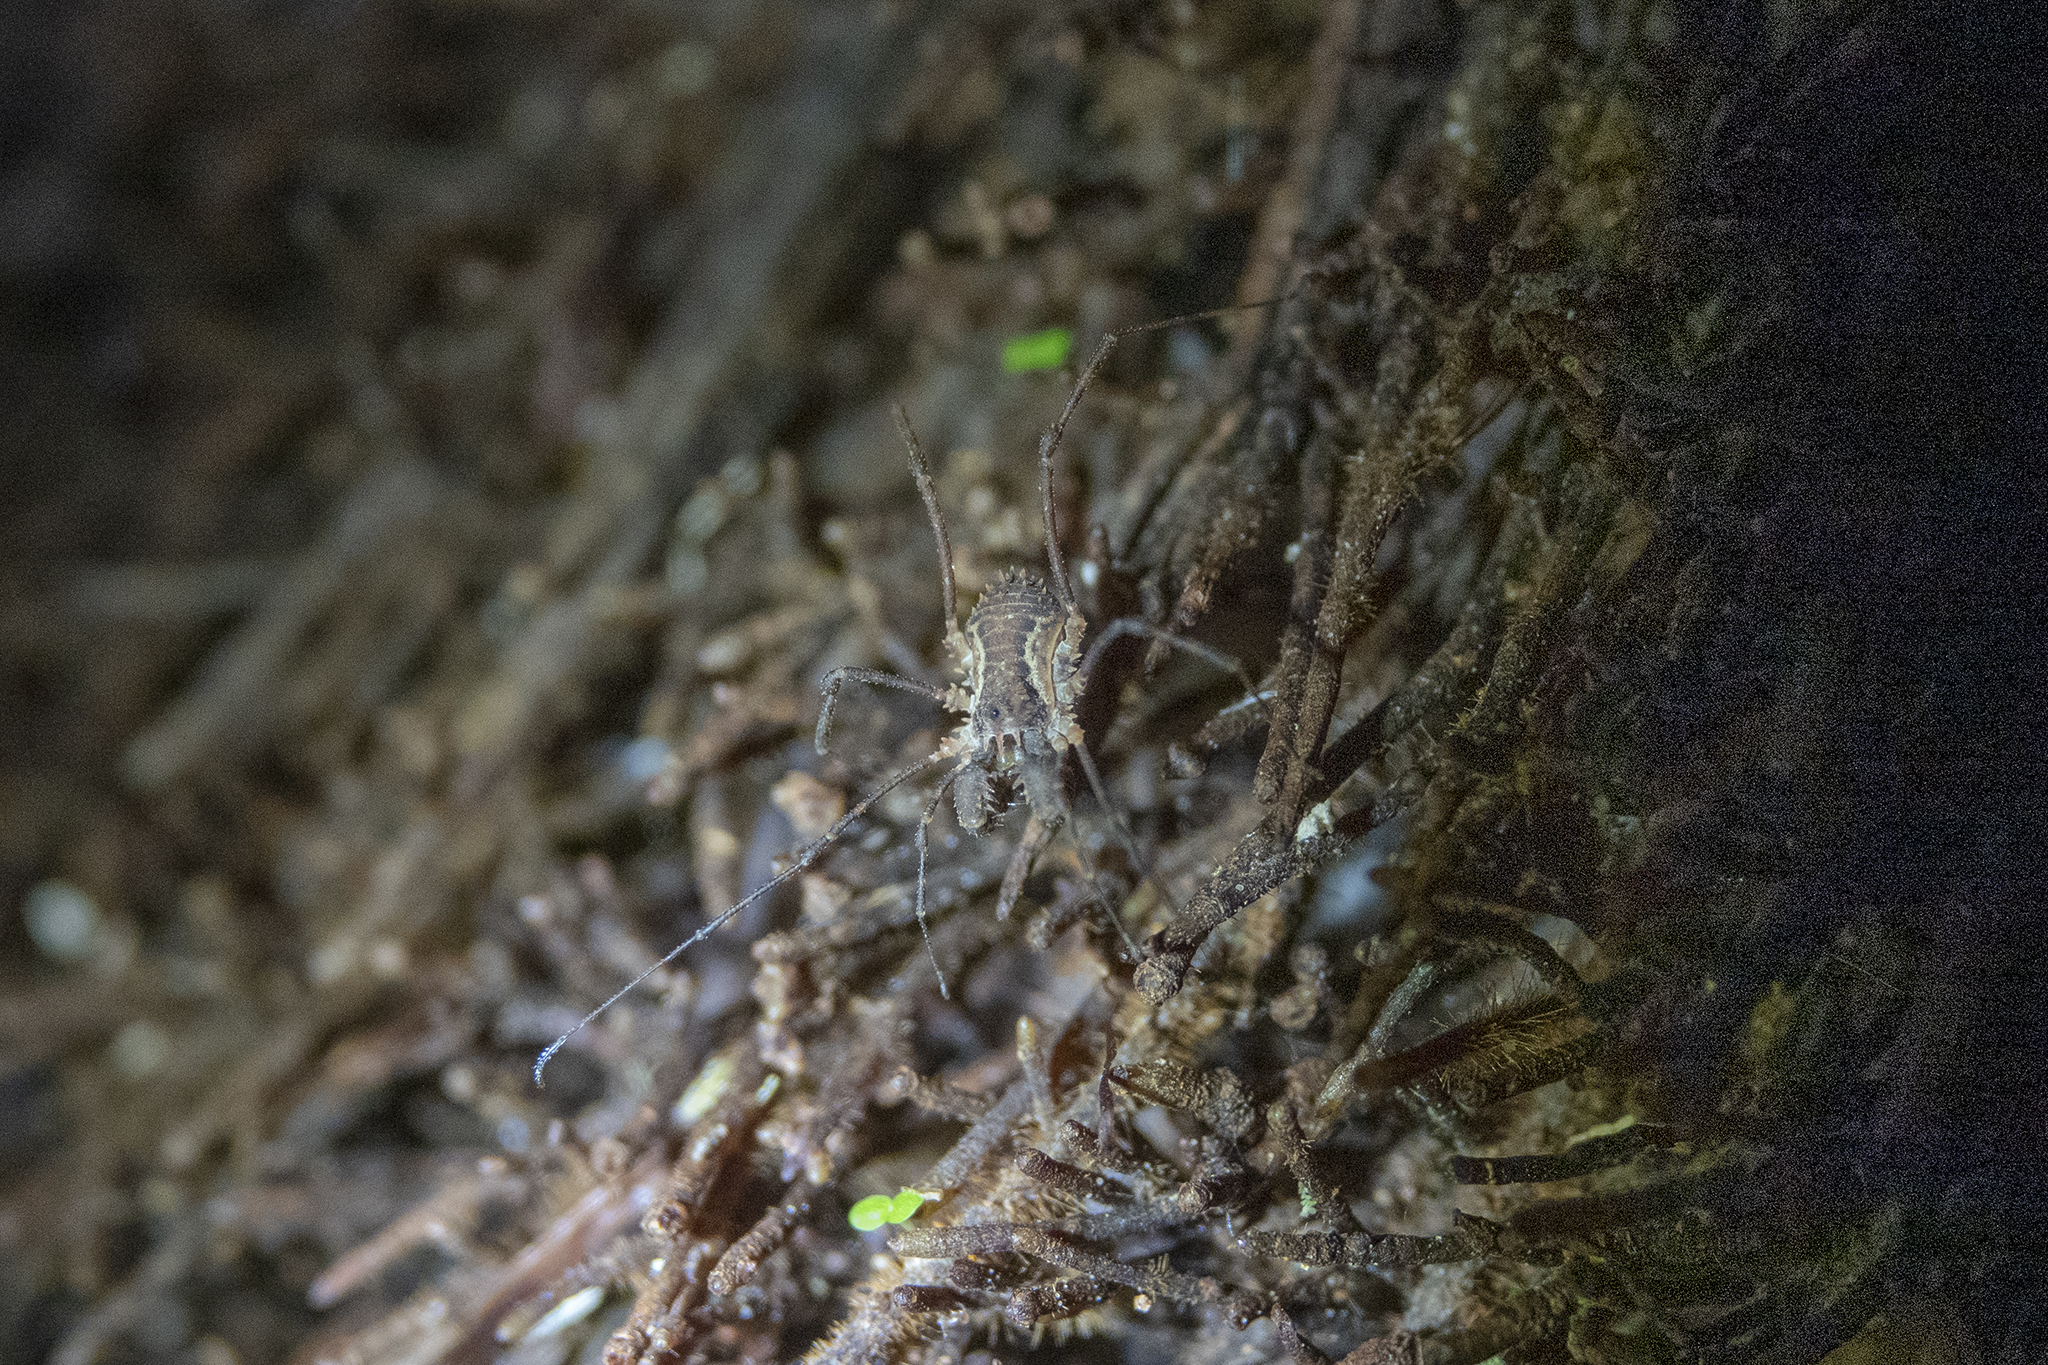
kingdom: Animalia
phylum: Arthropoda
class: Arachnida
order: Opiliones
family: Triaenonychidae
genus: Algidia
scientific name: Algidia chiltoni
